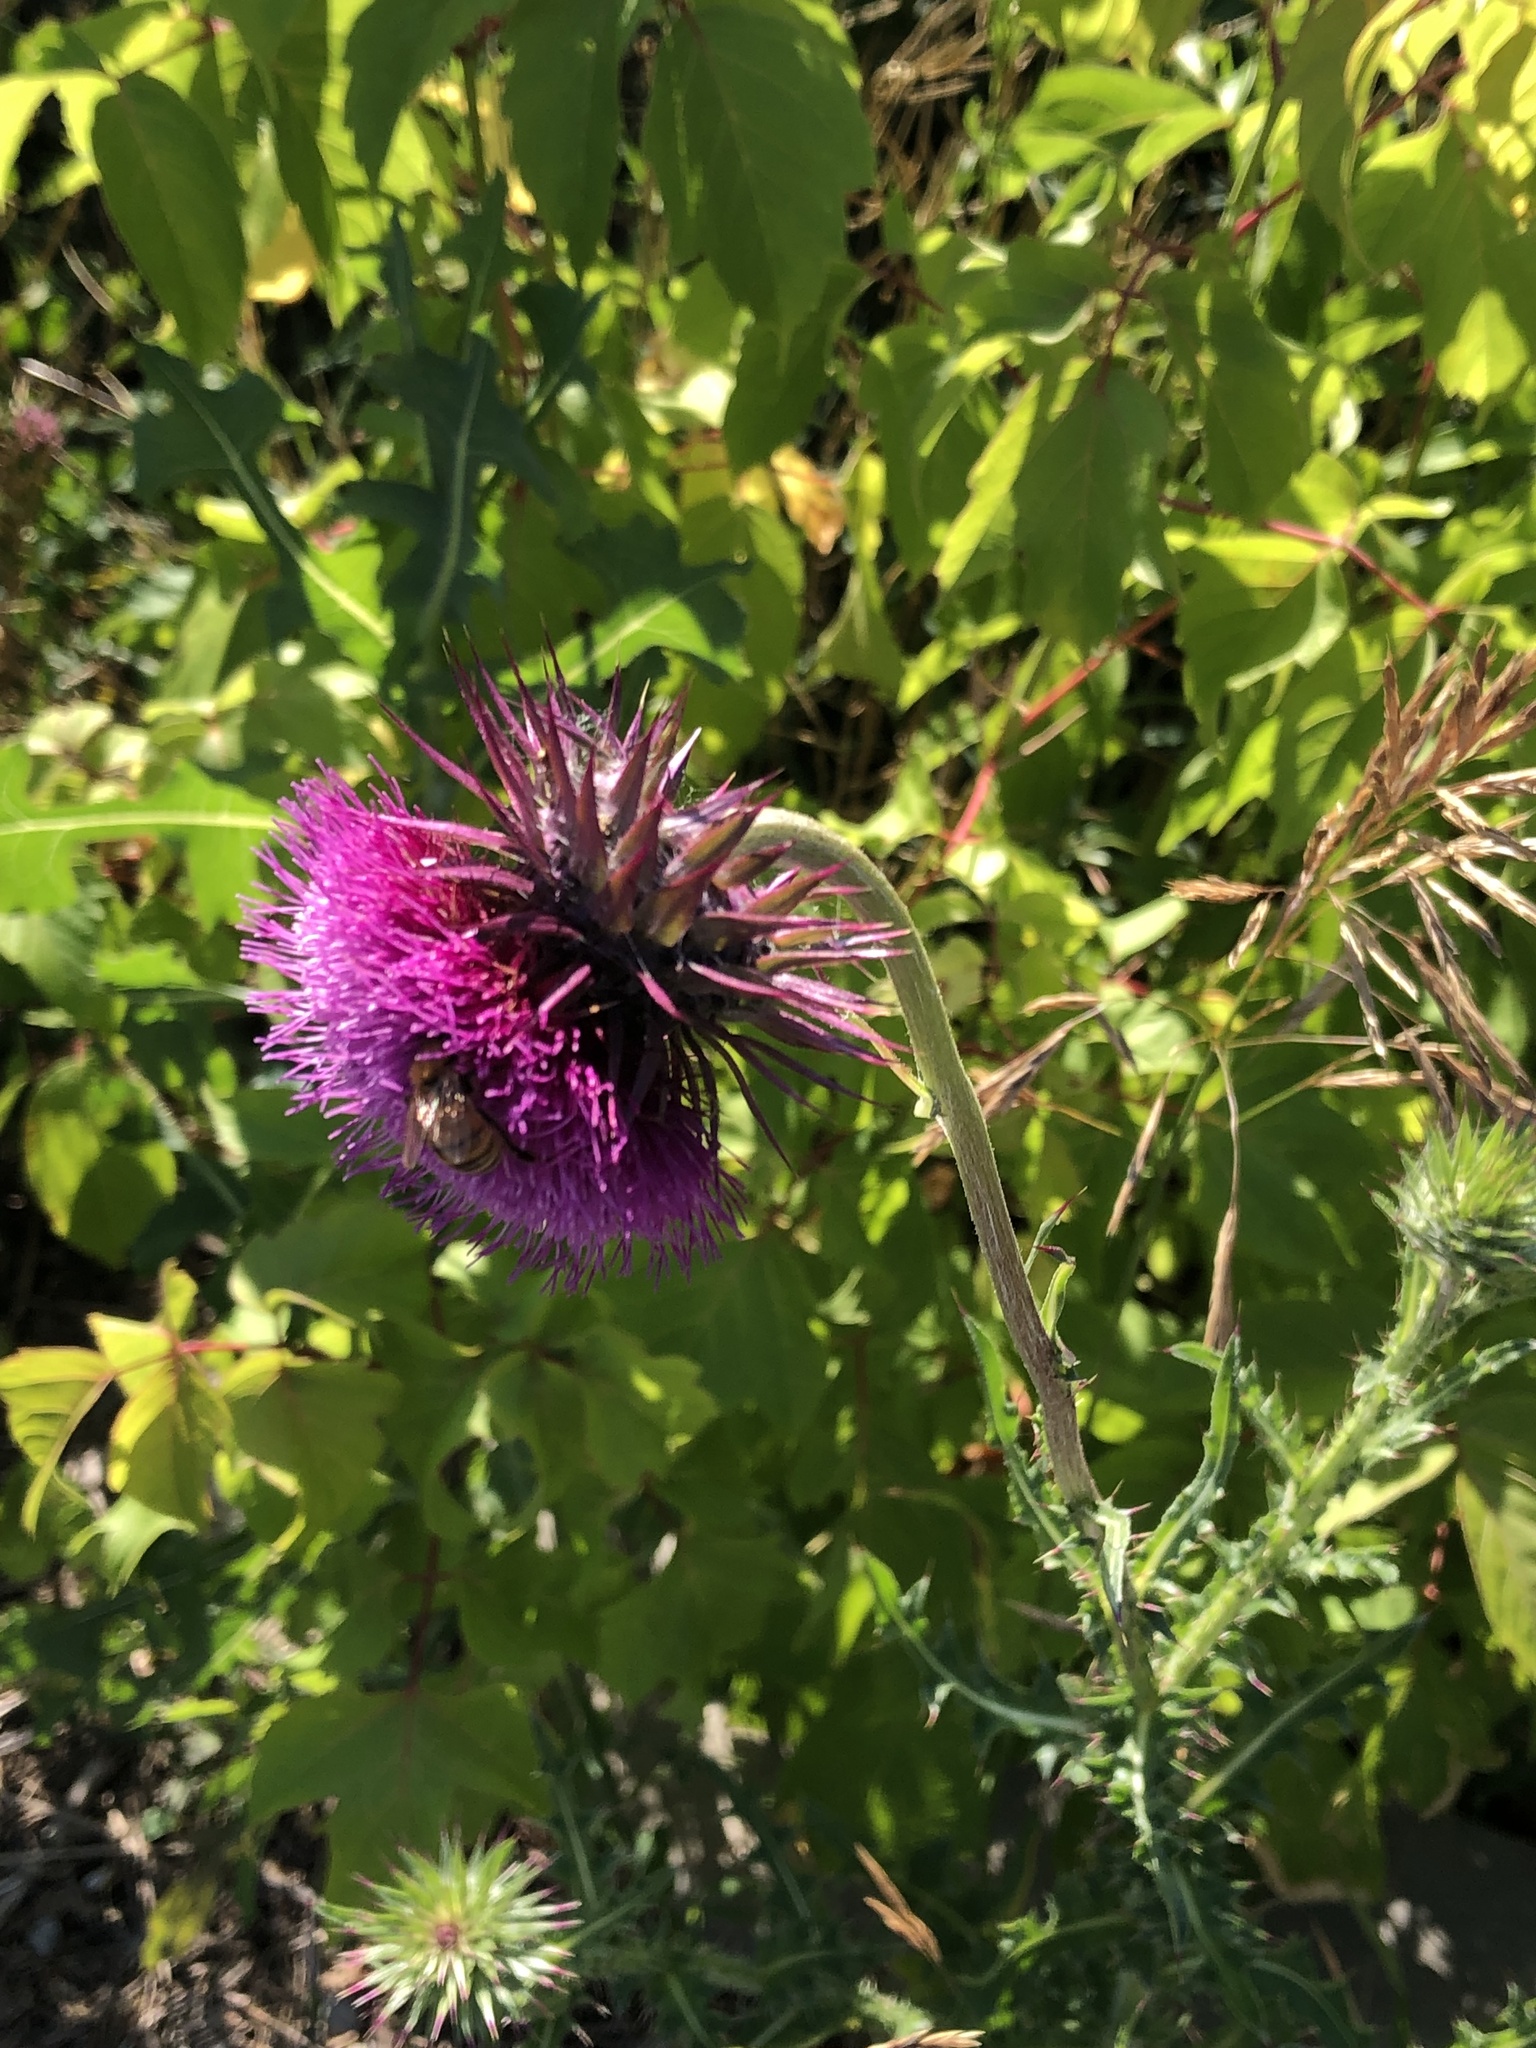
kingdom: Plantae
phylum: Tracheophyta
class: Magnoliopsida
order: Asterales
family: Asteraceae
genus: Carduus
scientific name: Carduus nutans
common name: Musk thistle
